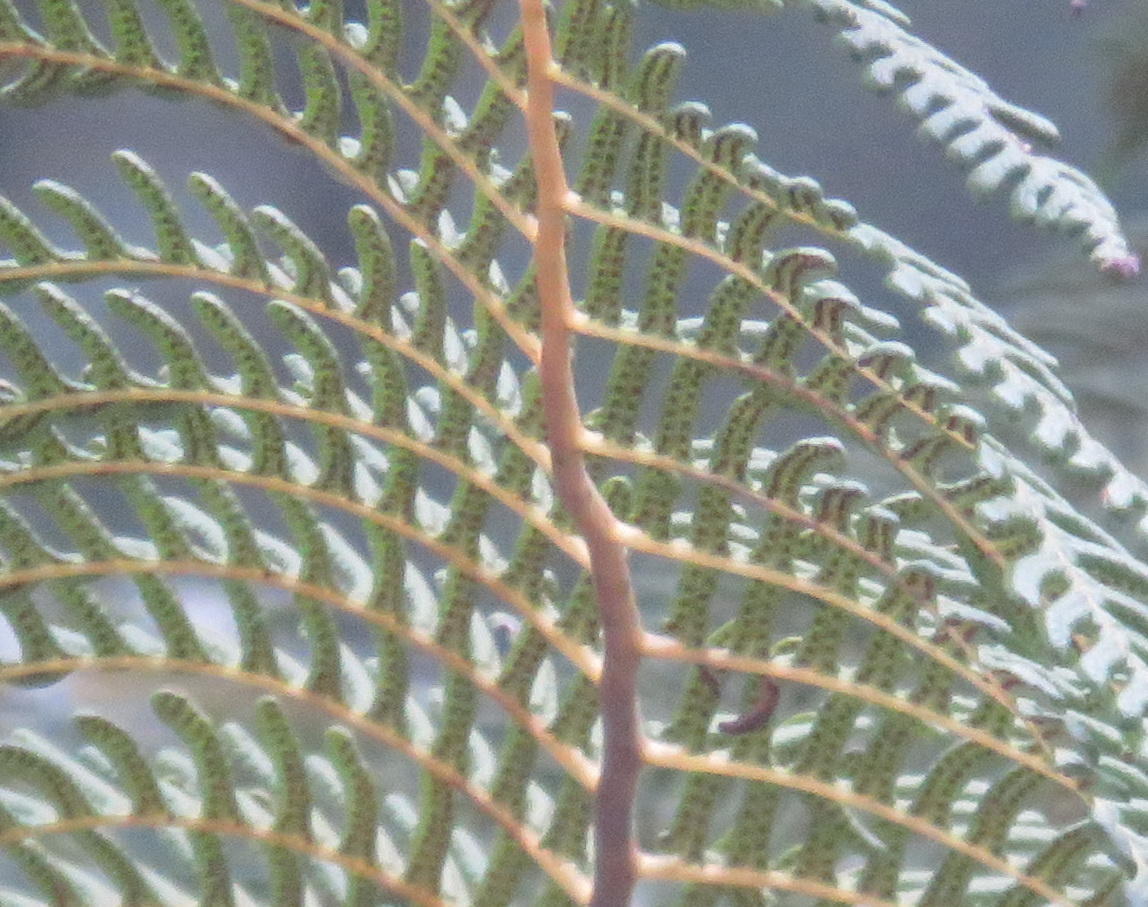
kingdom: Plantae
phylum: Tracheophyta
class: Polypodiopsida
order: Cyatheales
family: Cyatheaceae
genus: Sphaeropteris
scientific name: Sphaeropteris cooperi
